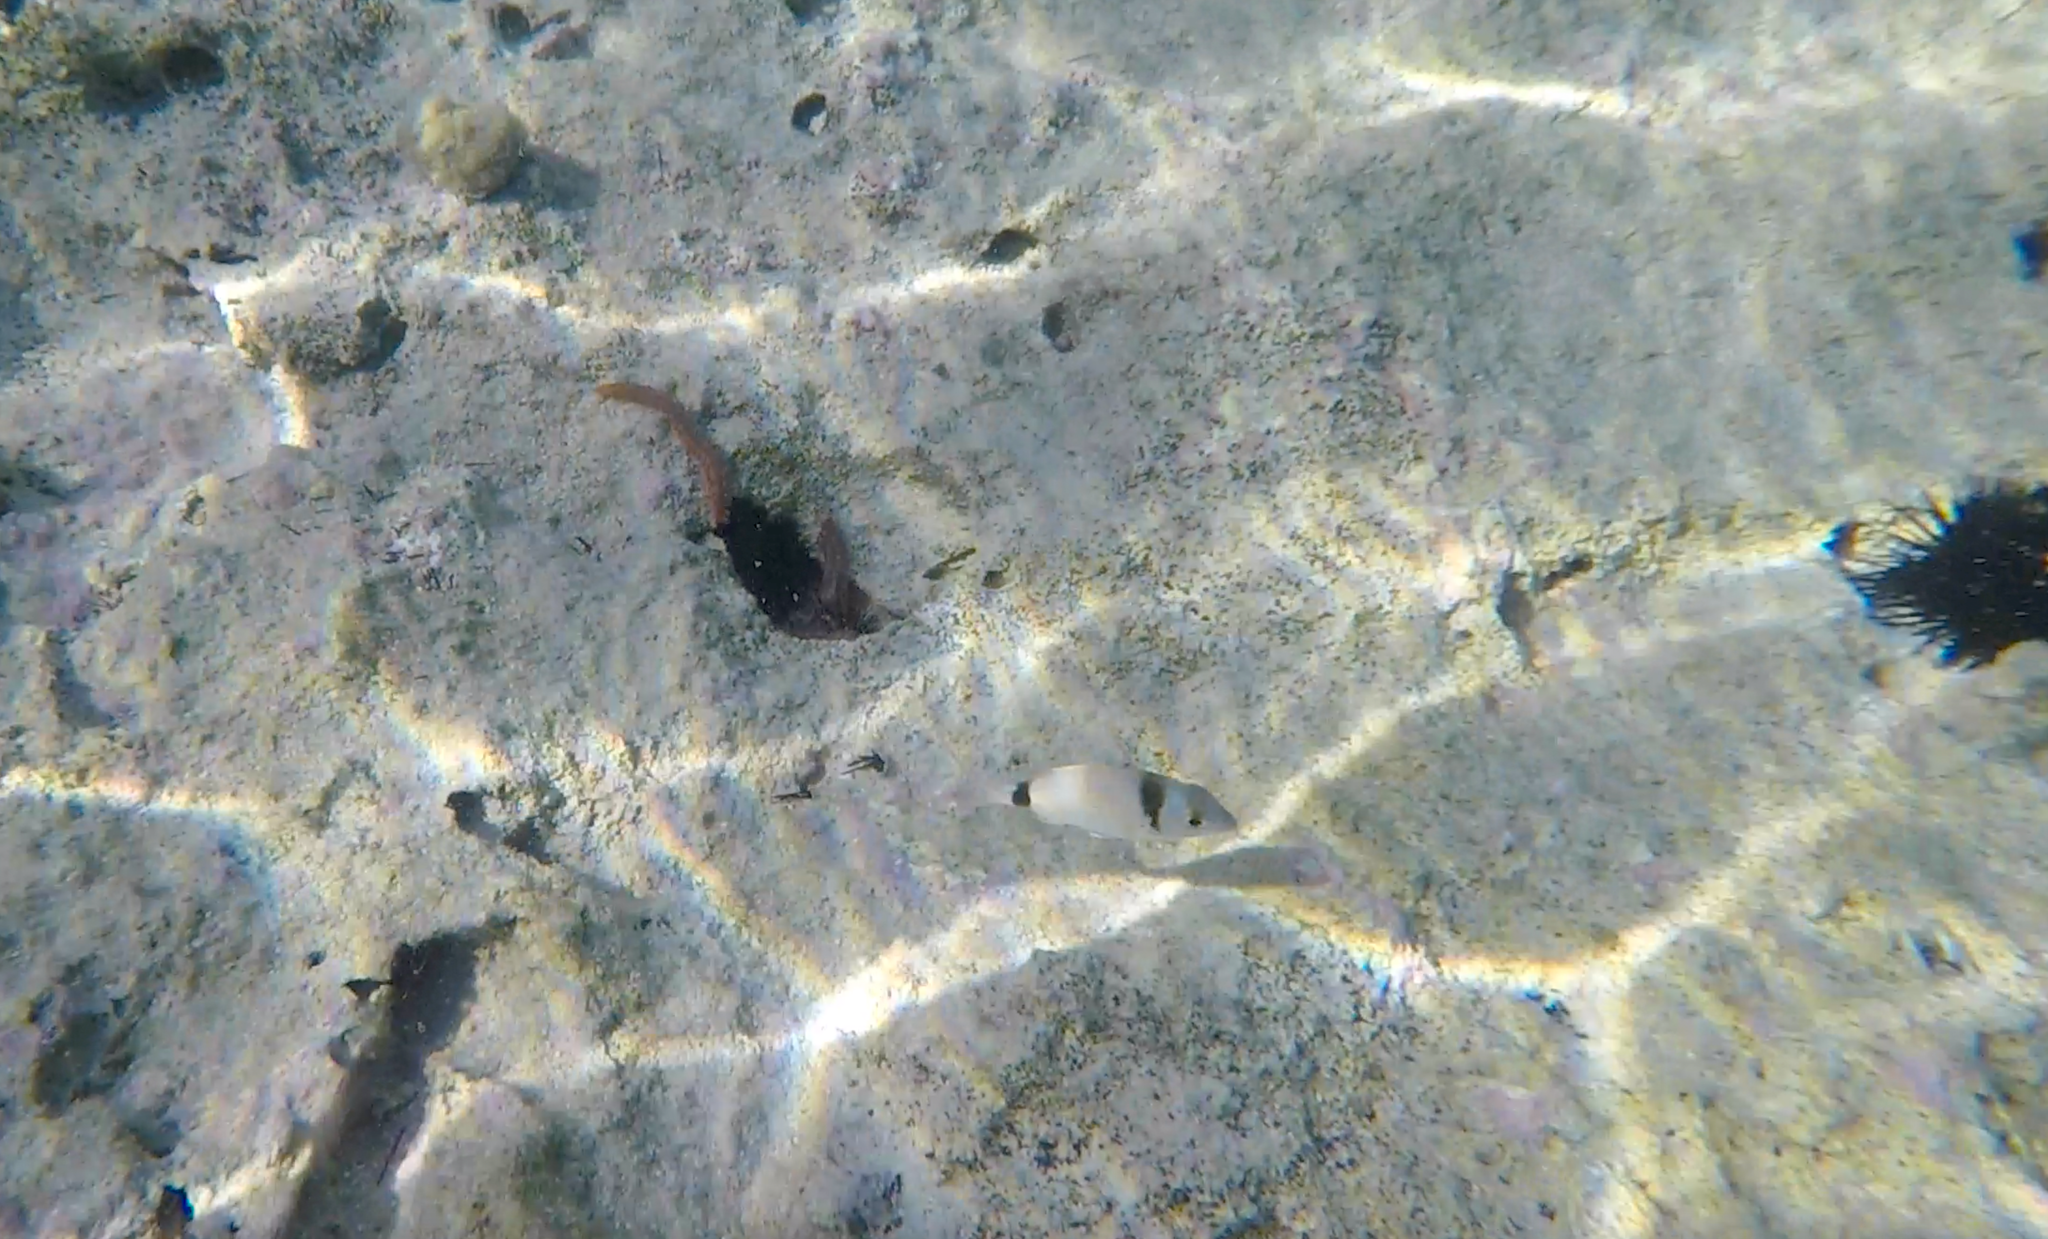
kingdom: Animalia
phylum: Chordata
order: Perciformes
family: Sparidae
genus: Diplodus
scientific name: Diplodus vulgaris
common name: Common two-banded seabream
